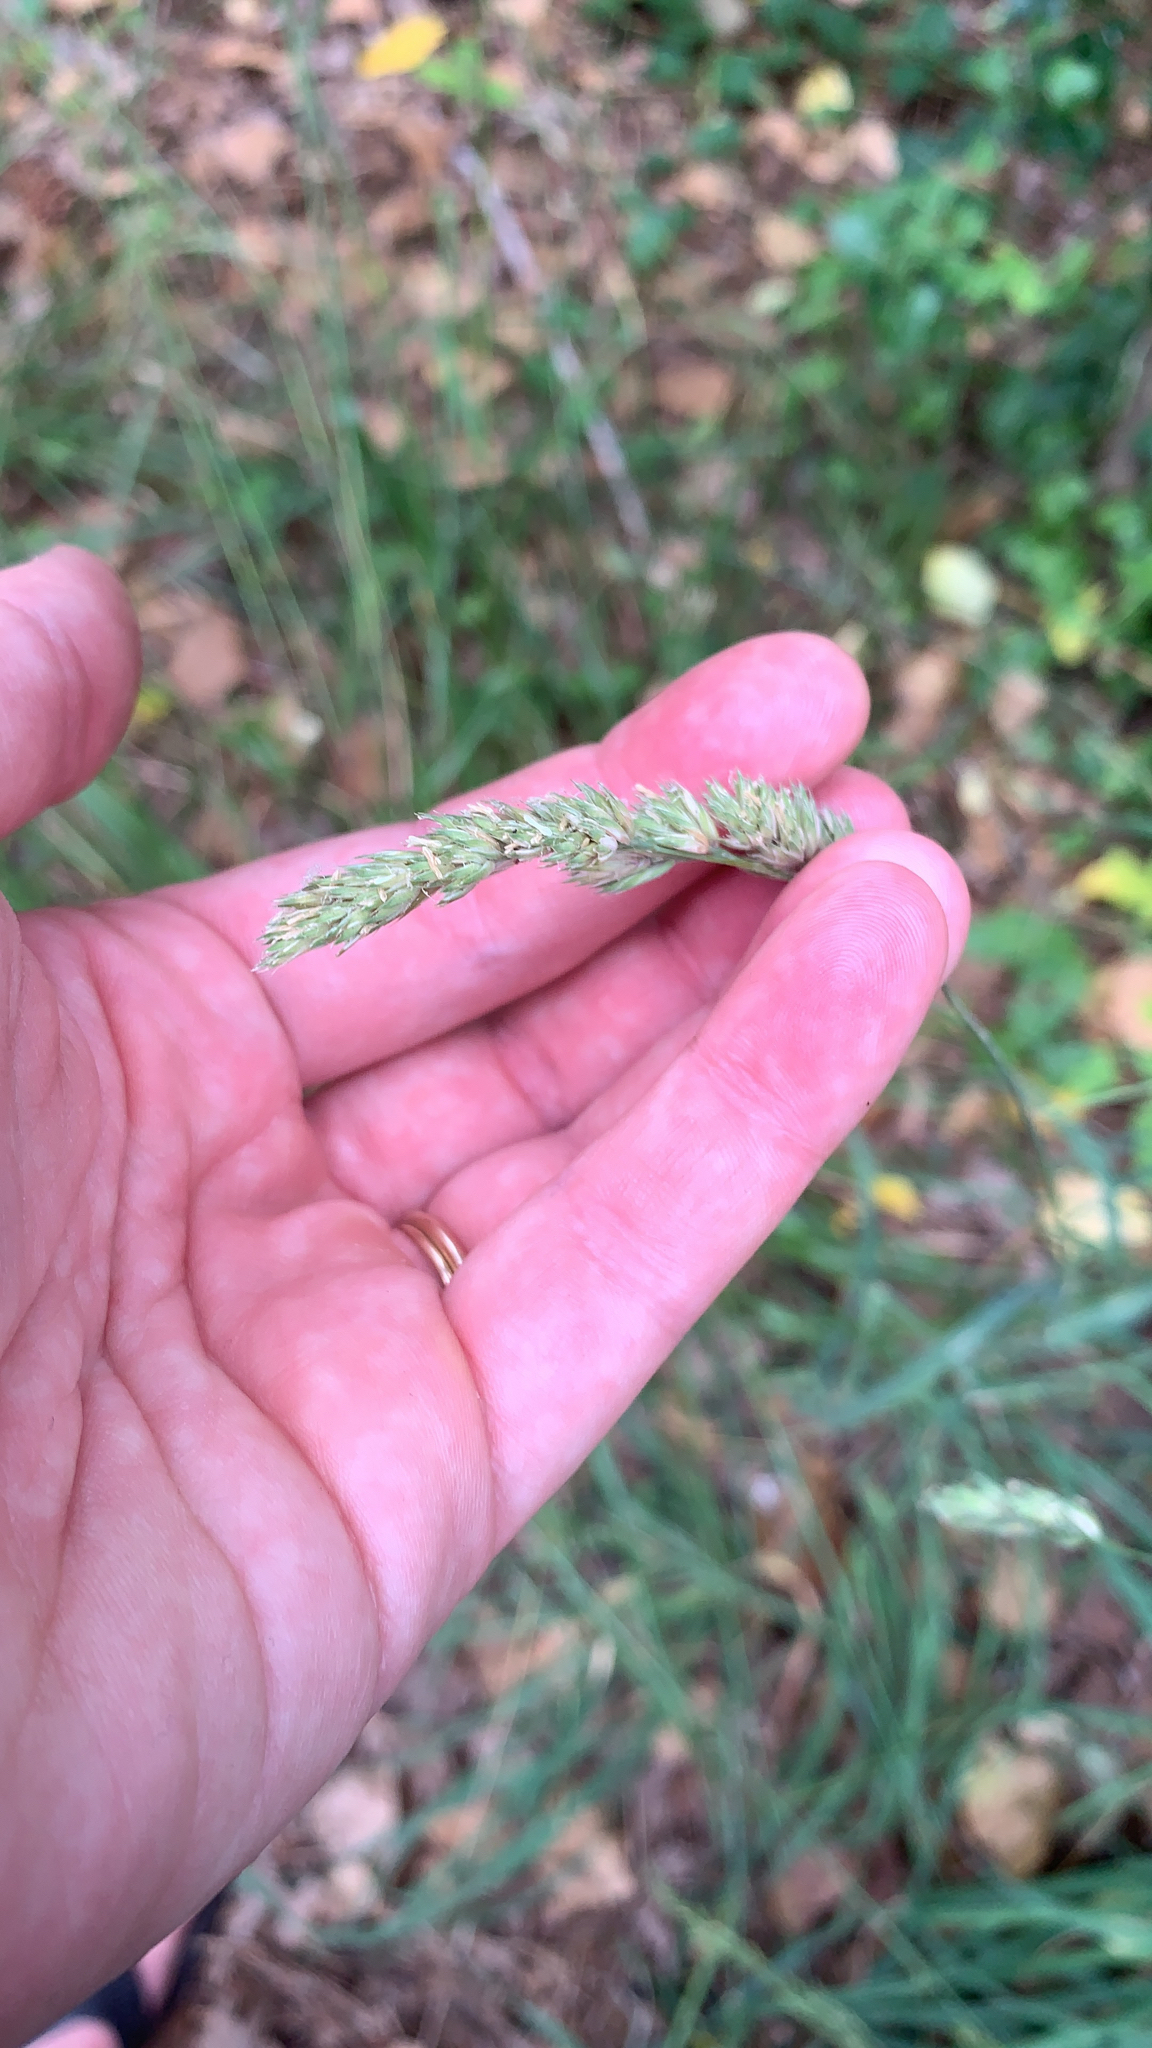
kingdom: Plantae
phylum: Tracheophyta
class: Liliopsida
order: Poales
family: Poaceae
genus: Dactylis
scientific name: Dactylis glomerata
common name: Orchardgrass
